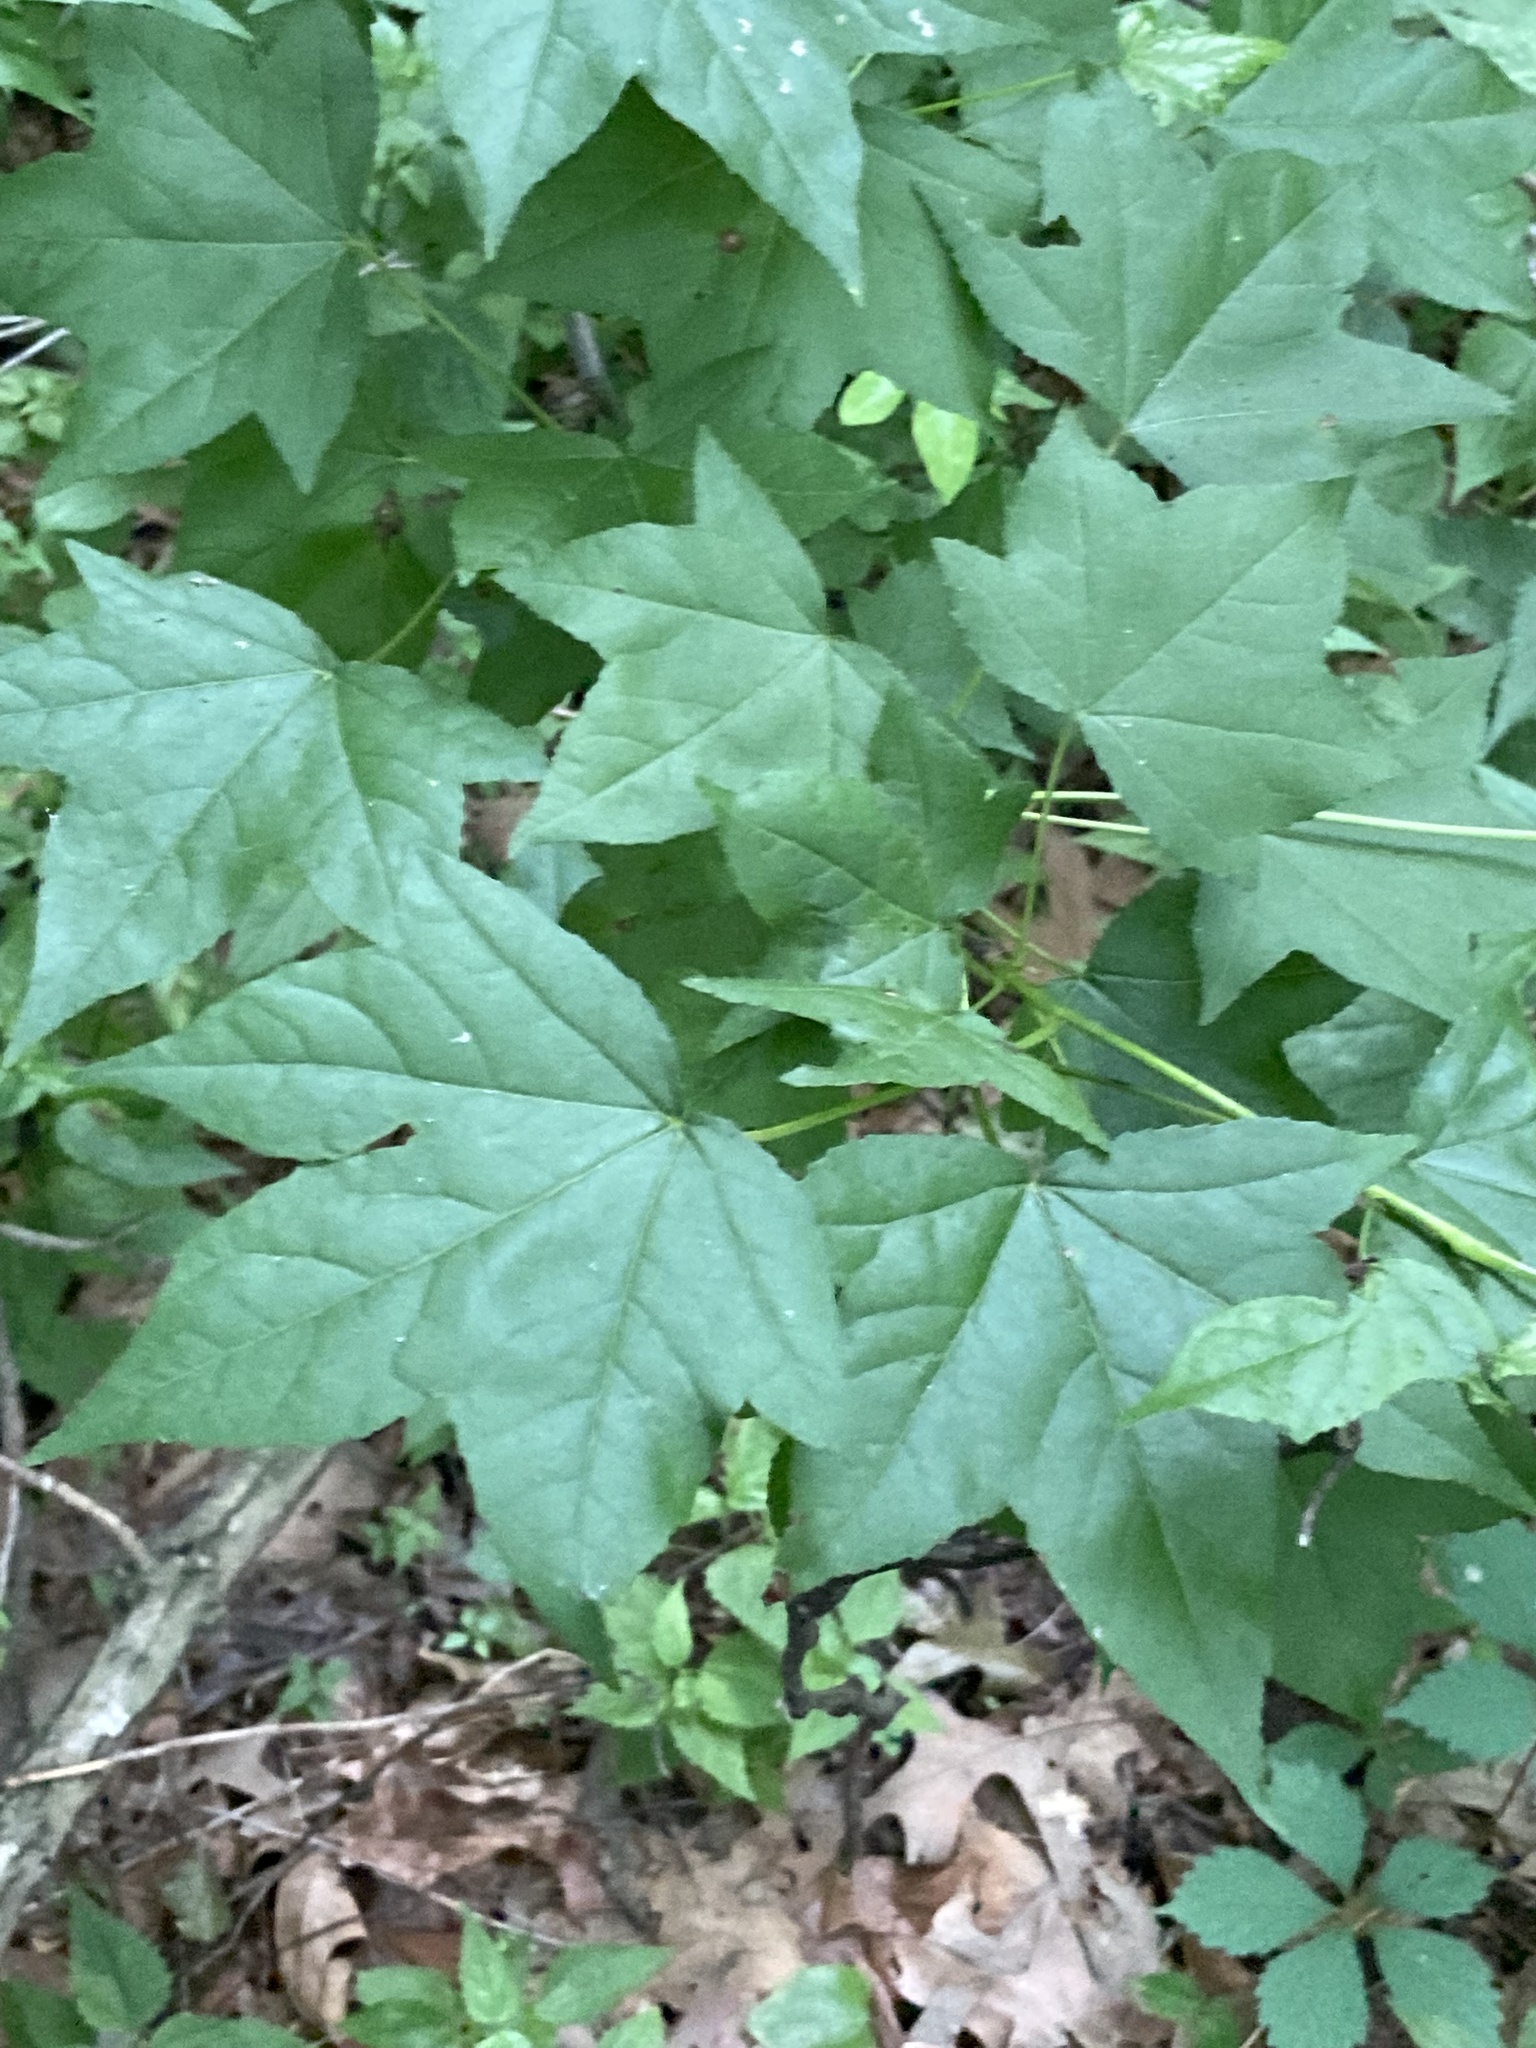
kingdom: Plantae
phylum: Tracheophyta
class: Magnoliopsida
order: Saxifragales
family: Altingiaceae
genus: Liquidambar
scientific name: Liquidambar styraciflua
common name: Sweet gum
